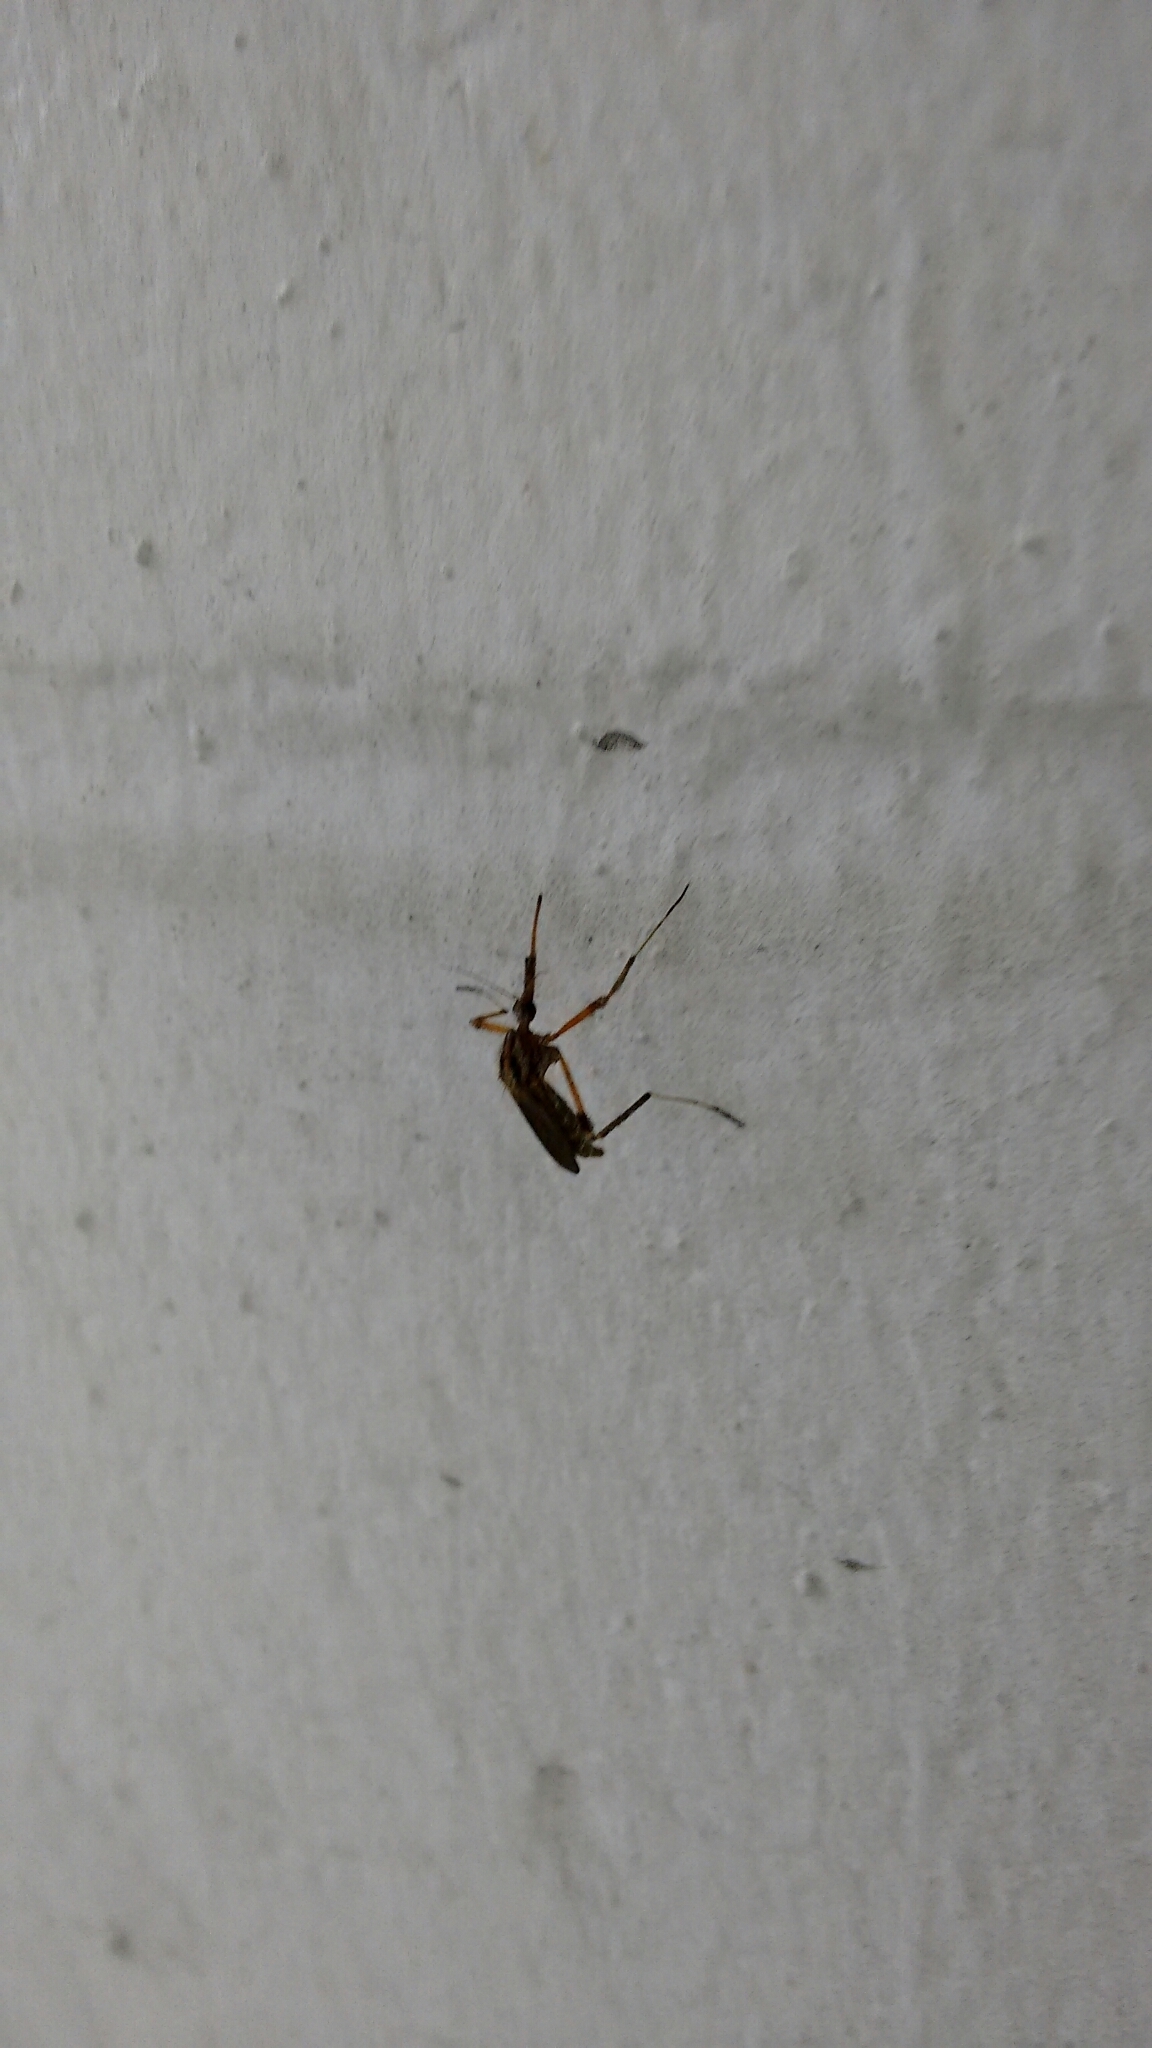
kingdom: Animalia
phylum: Arthropoda
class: Insecta
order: Diptera
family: Culicidae
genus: Psorophora
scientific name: Psorophora ciliata
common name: Gallinipper
